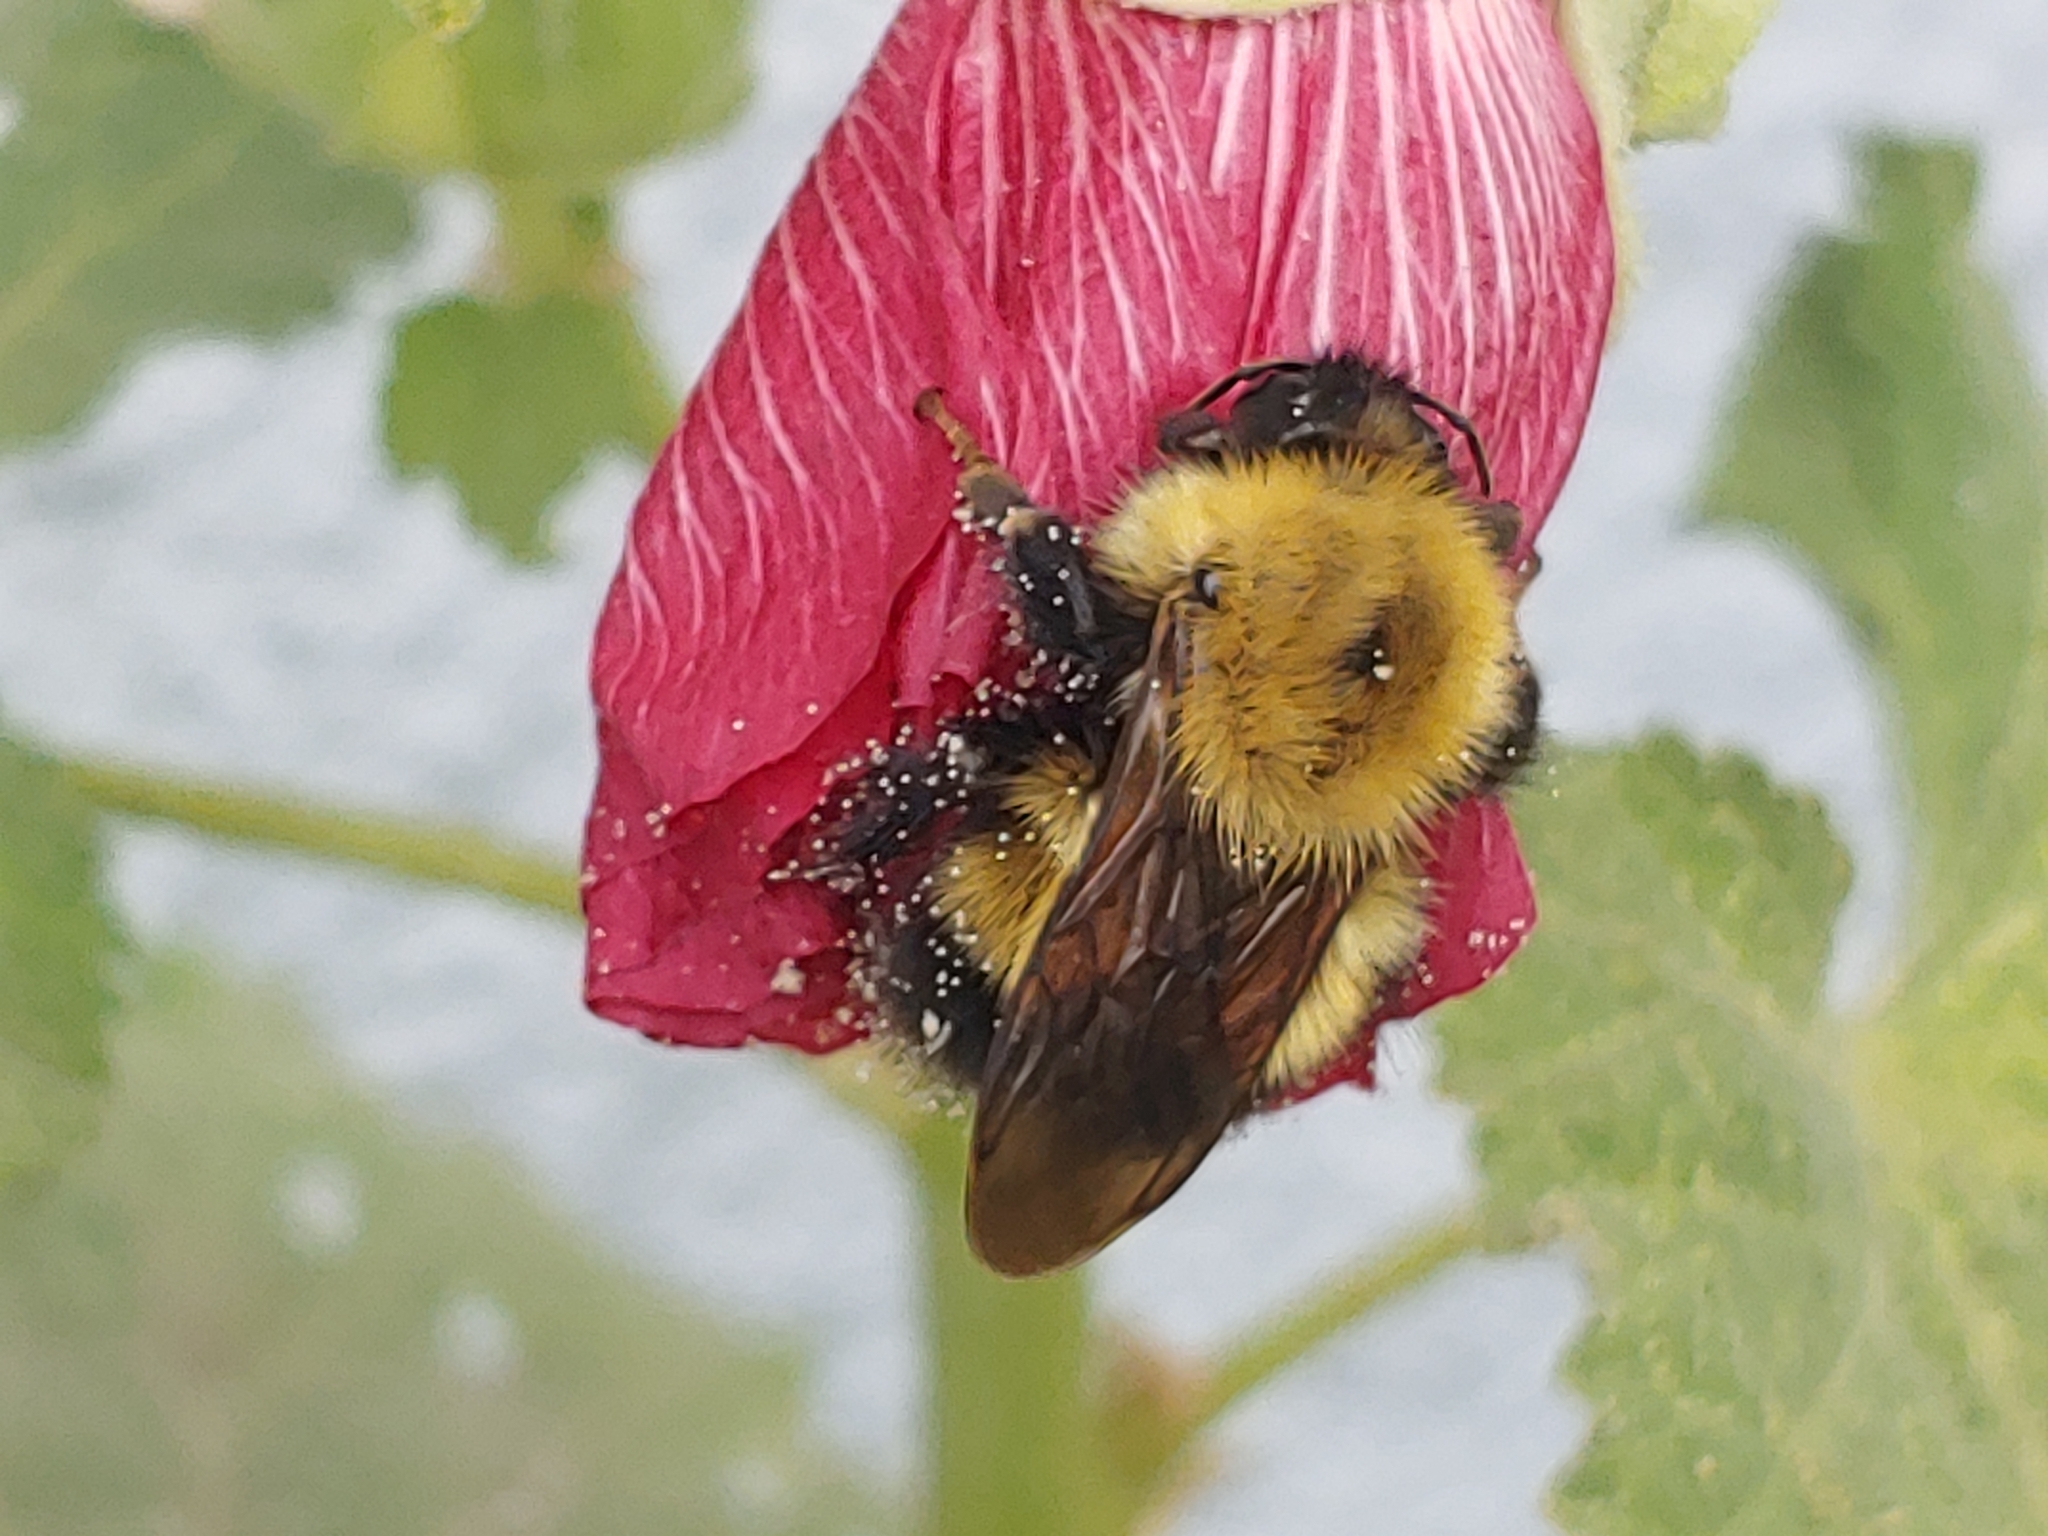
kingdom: Animalia
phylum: Arthropoda
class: Insecta
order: Hymenoptera
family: Apidae
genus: Bombus
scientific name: Bombus perplexus
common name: Confusing bumble bee
